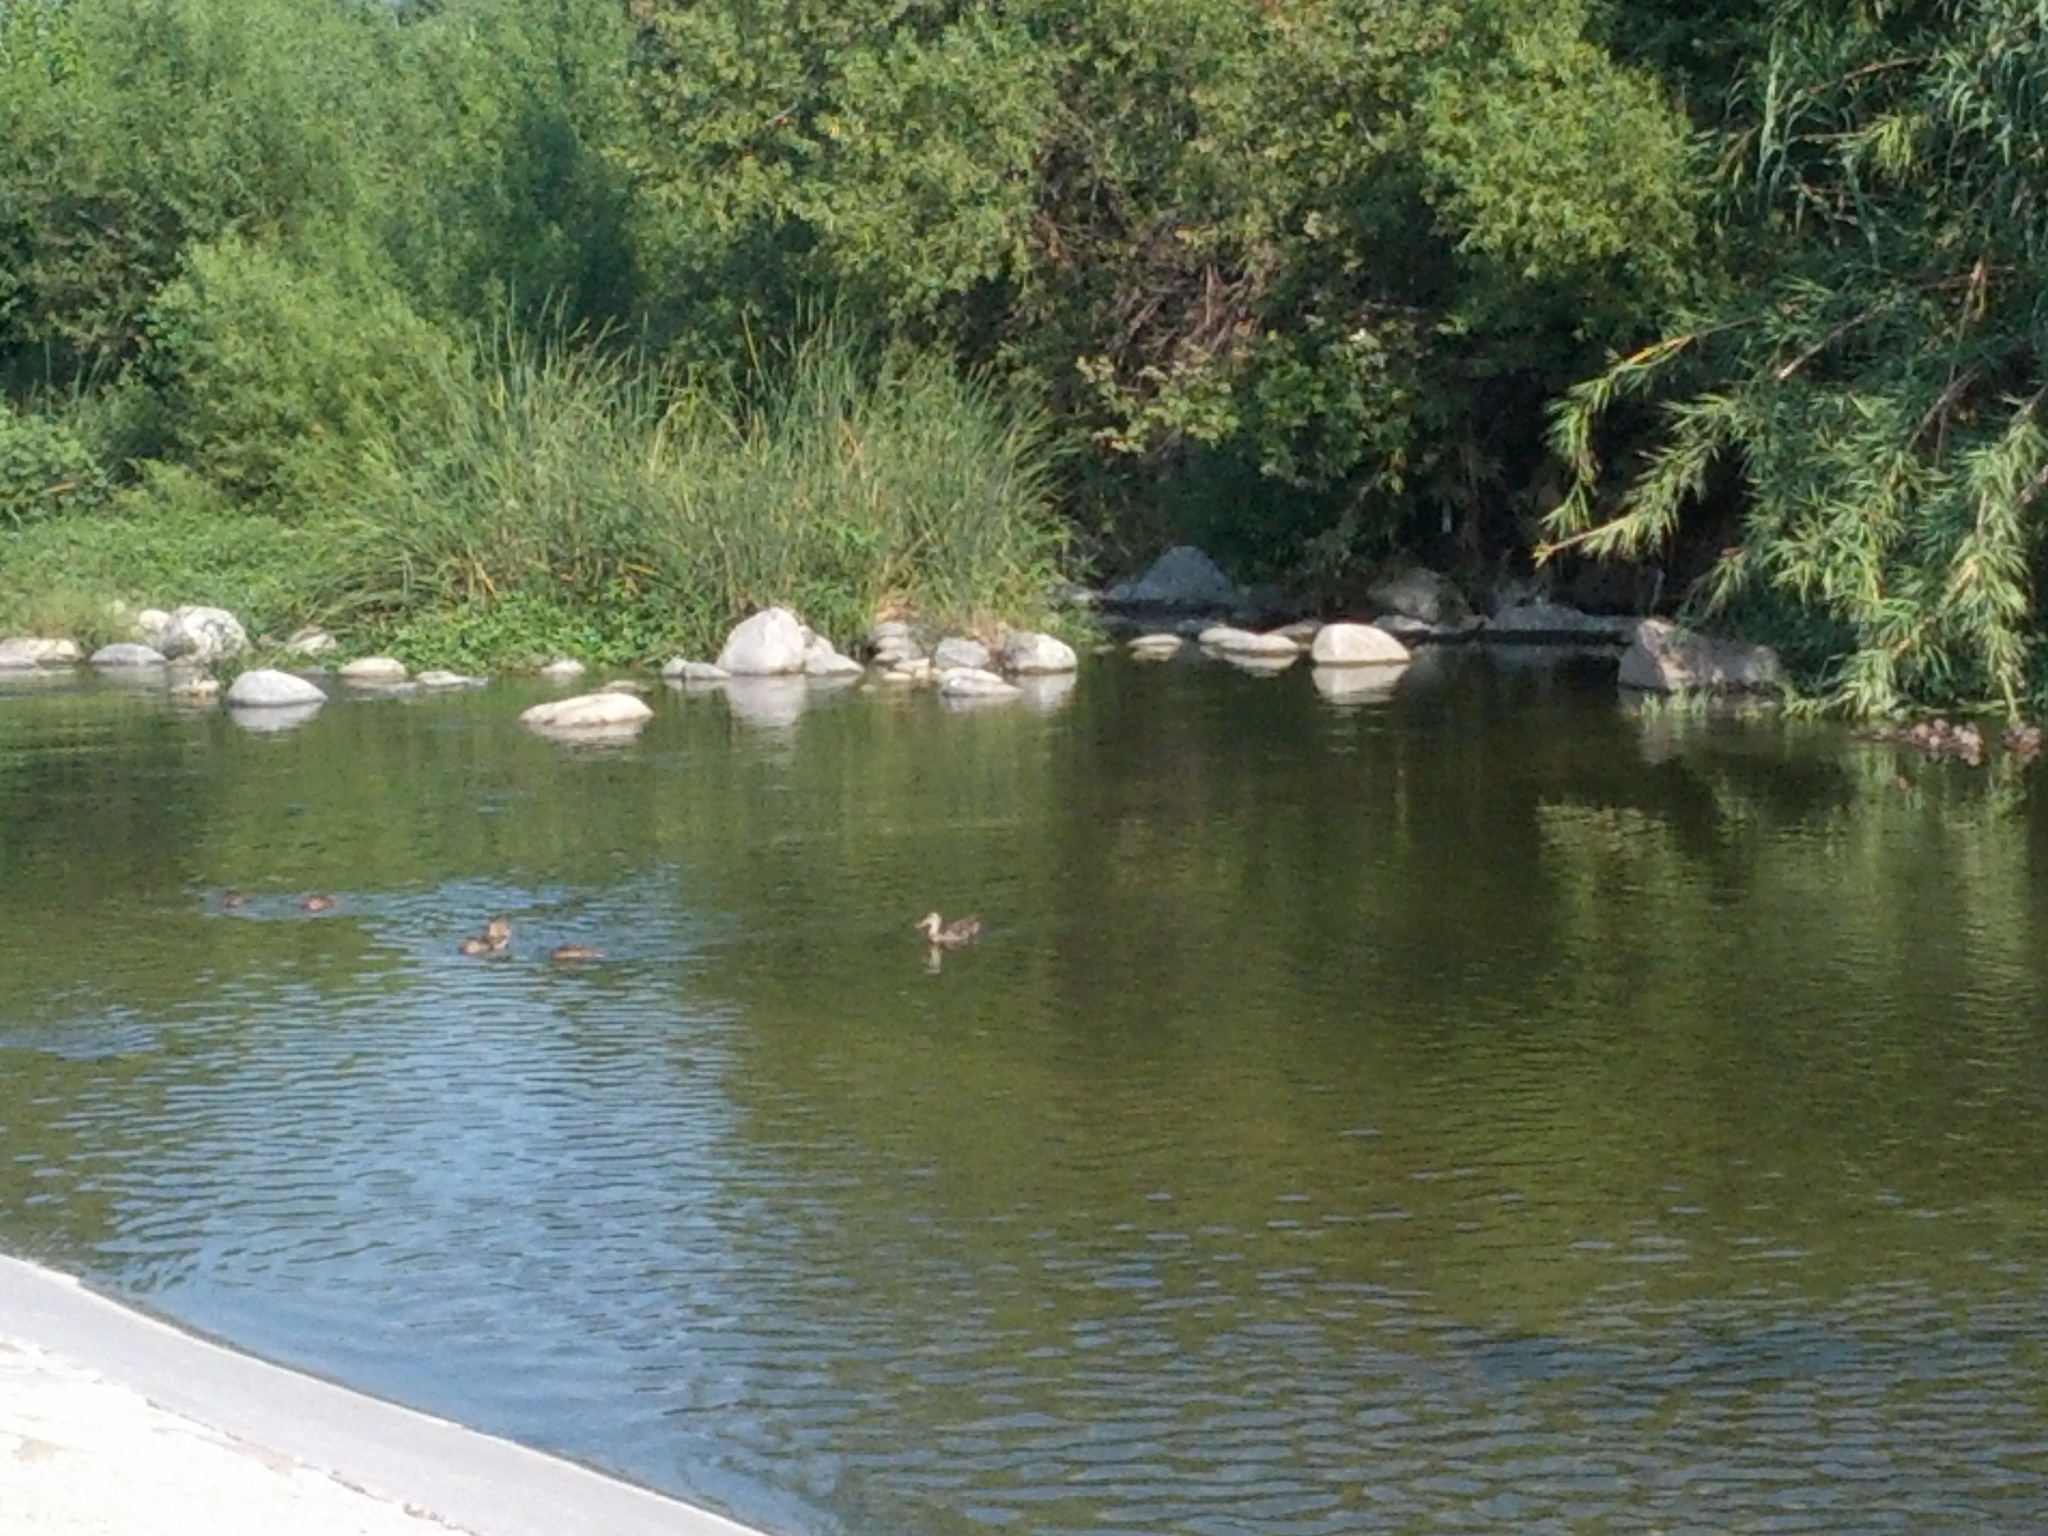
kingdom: Animalia
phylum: Chordata
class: Aves
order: Anseriformes
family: Anatidae
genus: Anas
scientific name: Anas platyrhynchos
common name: Mallard
